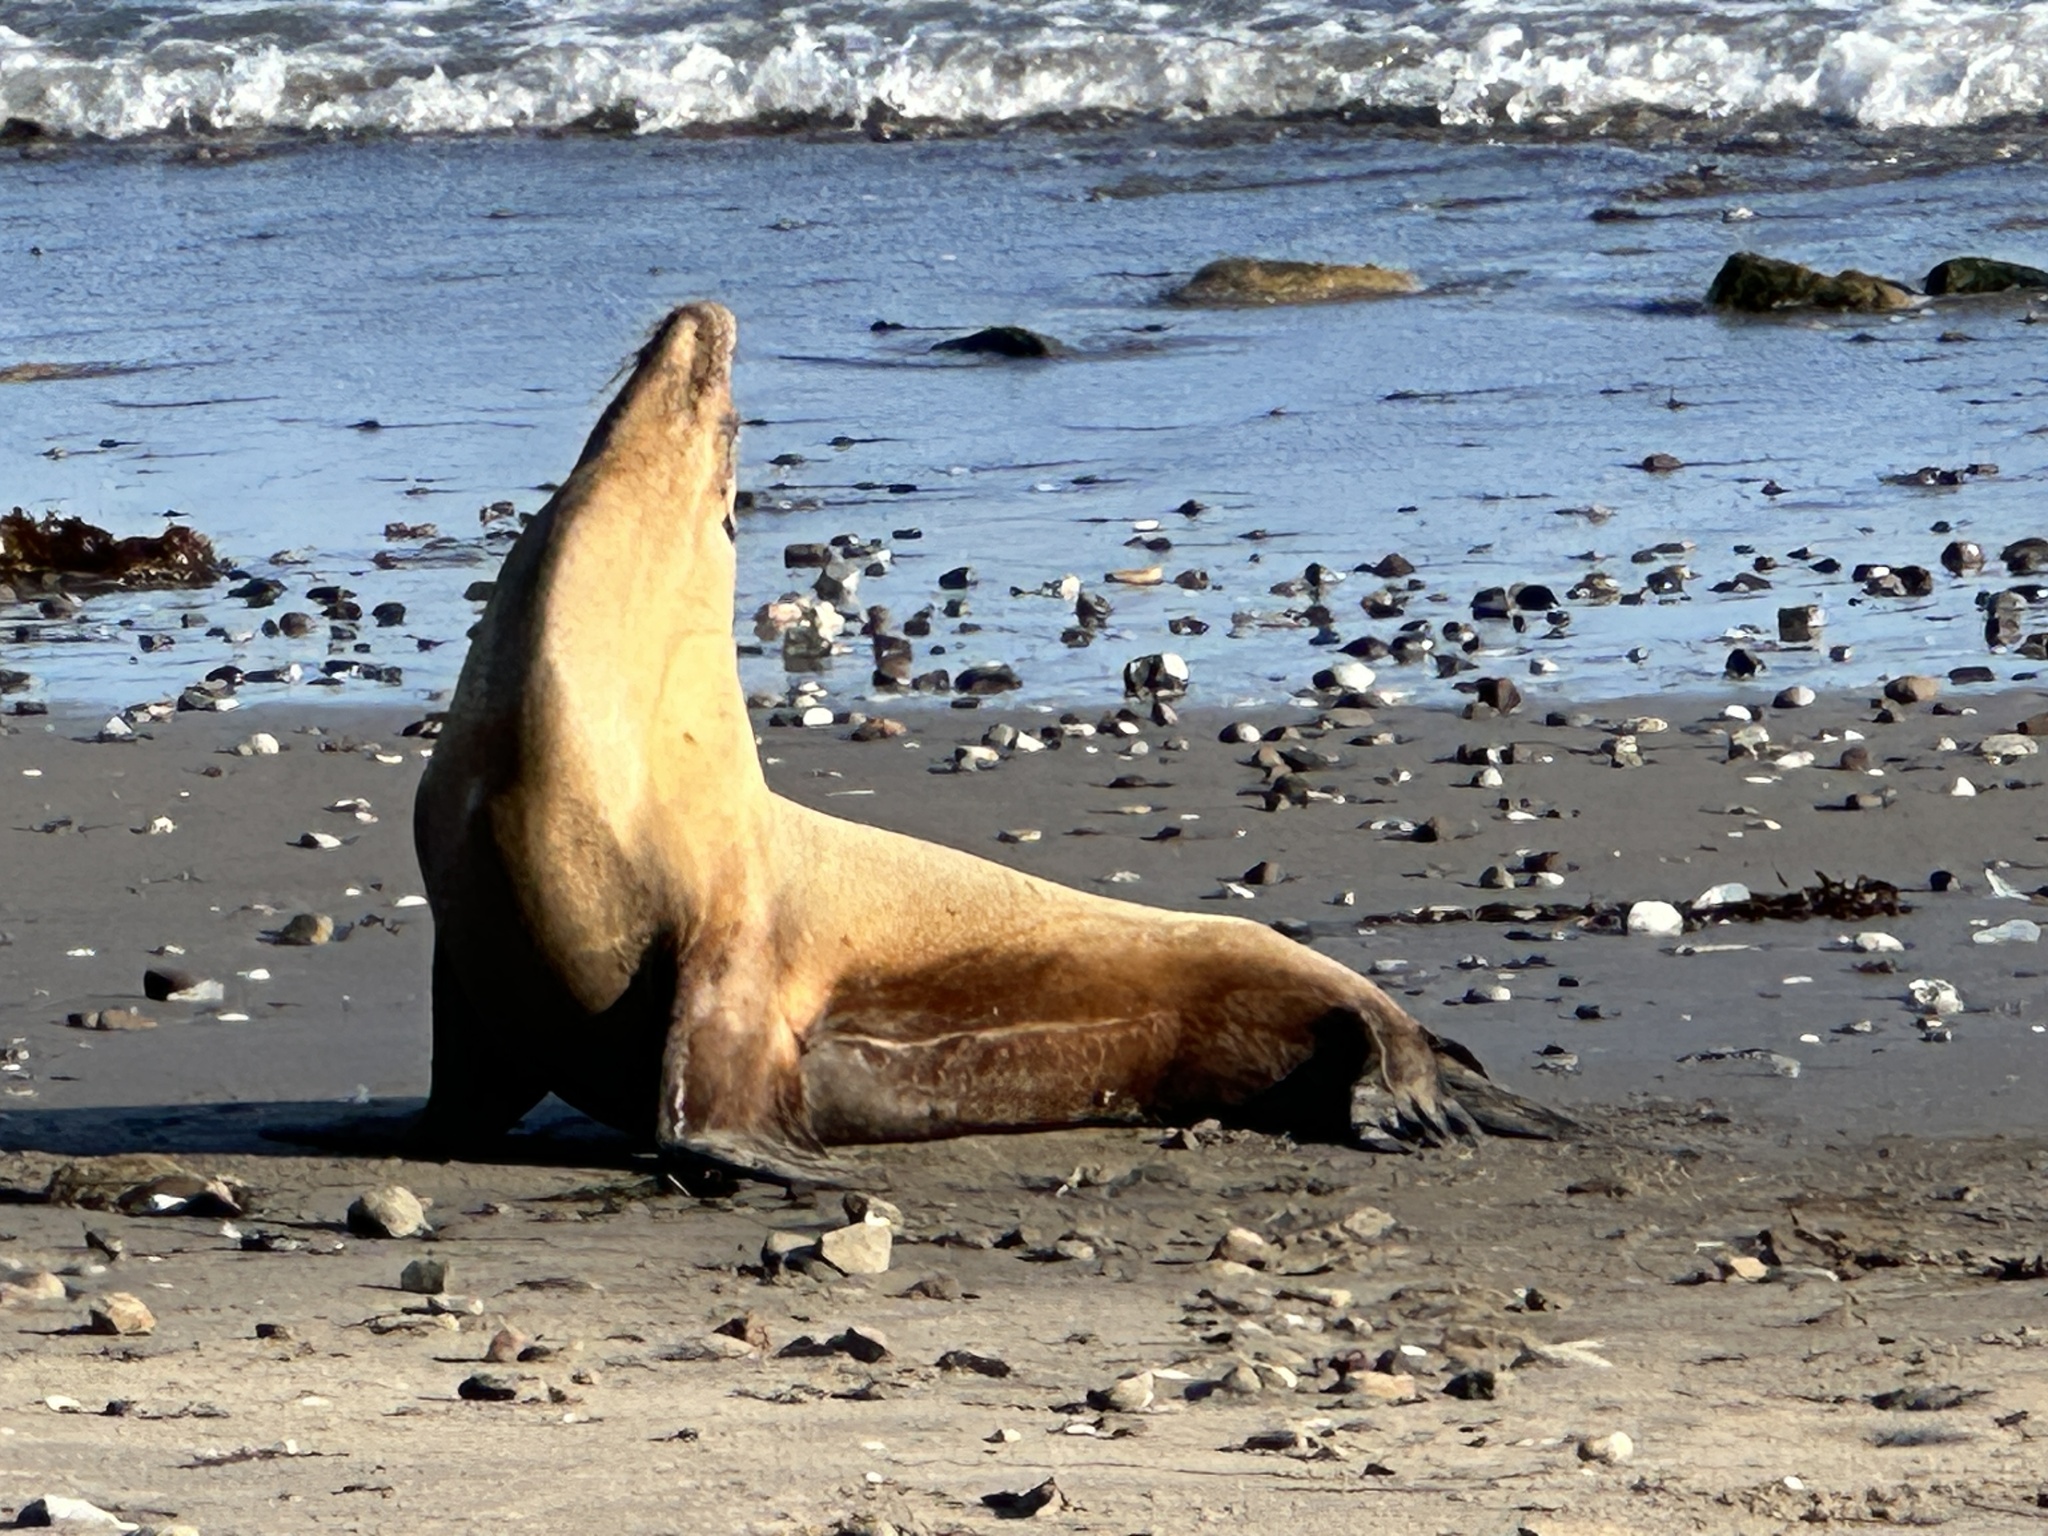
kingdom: Animalia
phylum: Chordata
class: Mammalia
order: Carnivora
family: Otariidae
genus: Zalophus
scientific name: Zalophus californianus
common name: California sea lion
